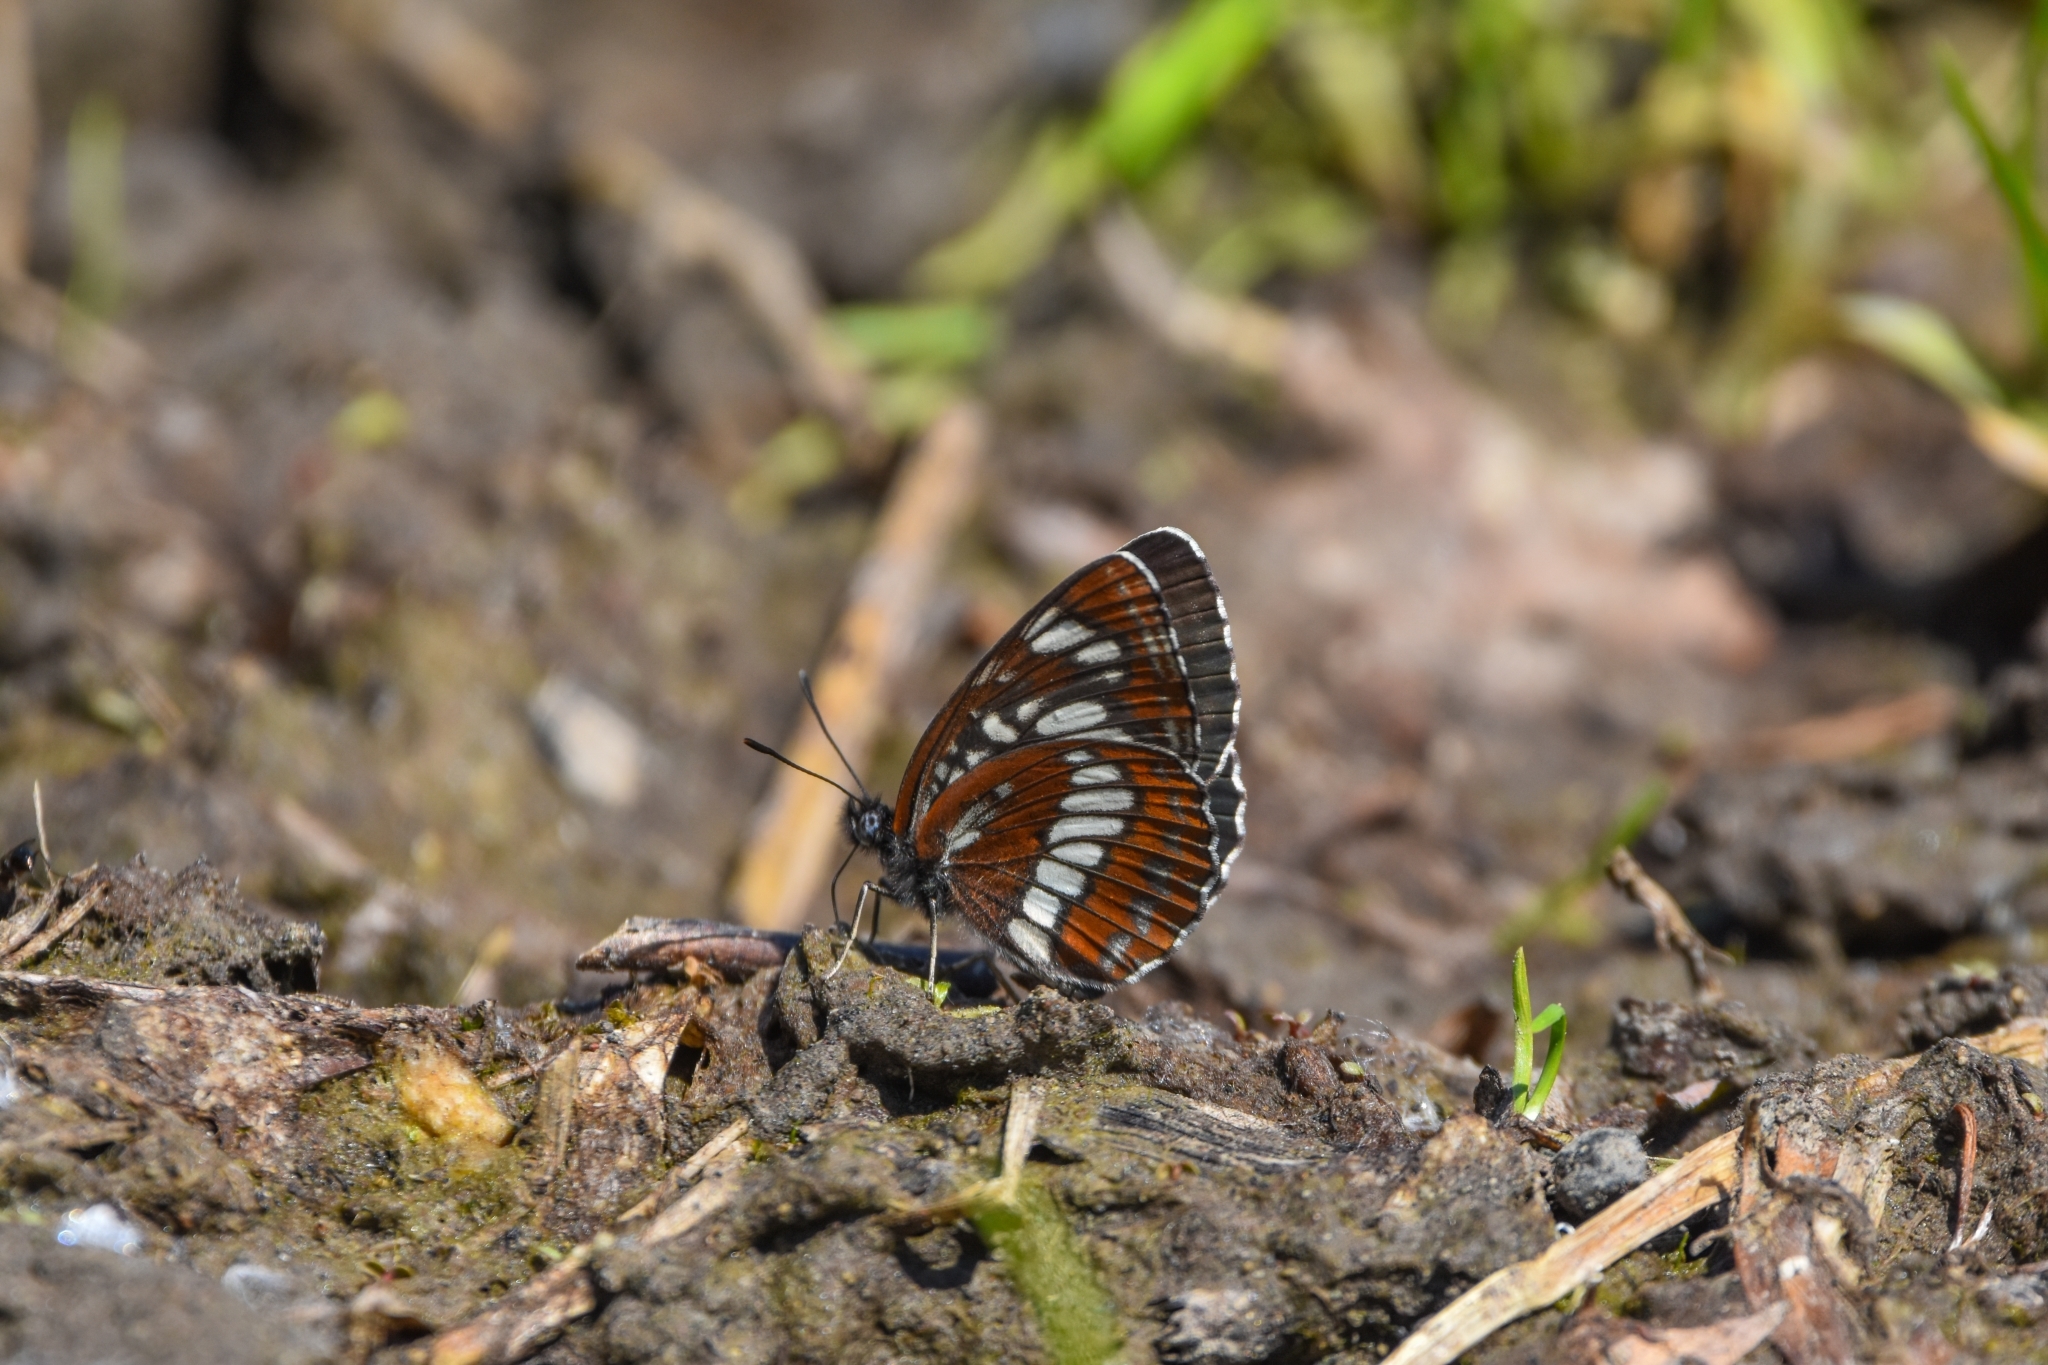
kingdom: Animalia
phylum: Arthropoda
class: Insecta
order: Lepidoptera
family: Nymphalidae
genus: Neptis
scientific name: Neptis rivularis
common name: Hungarian glider
